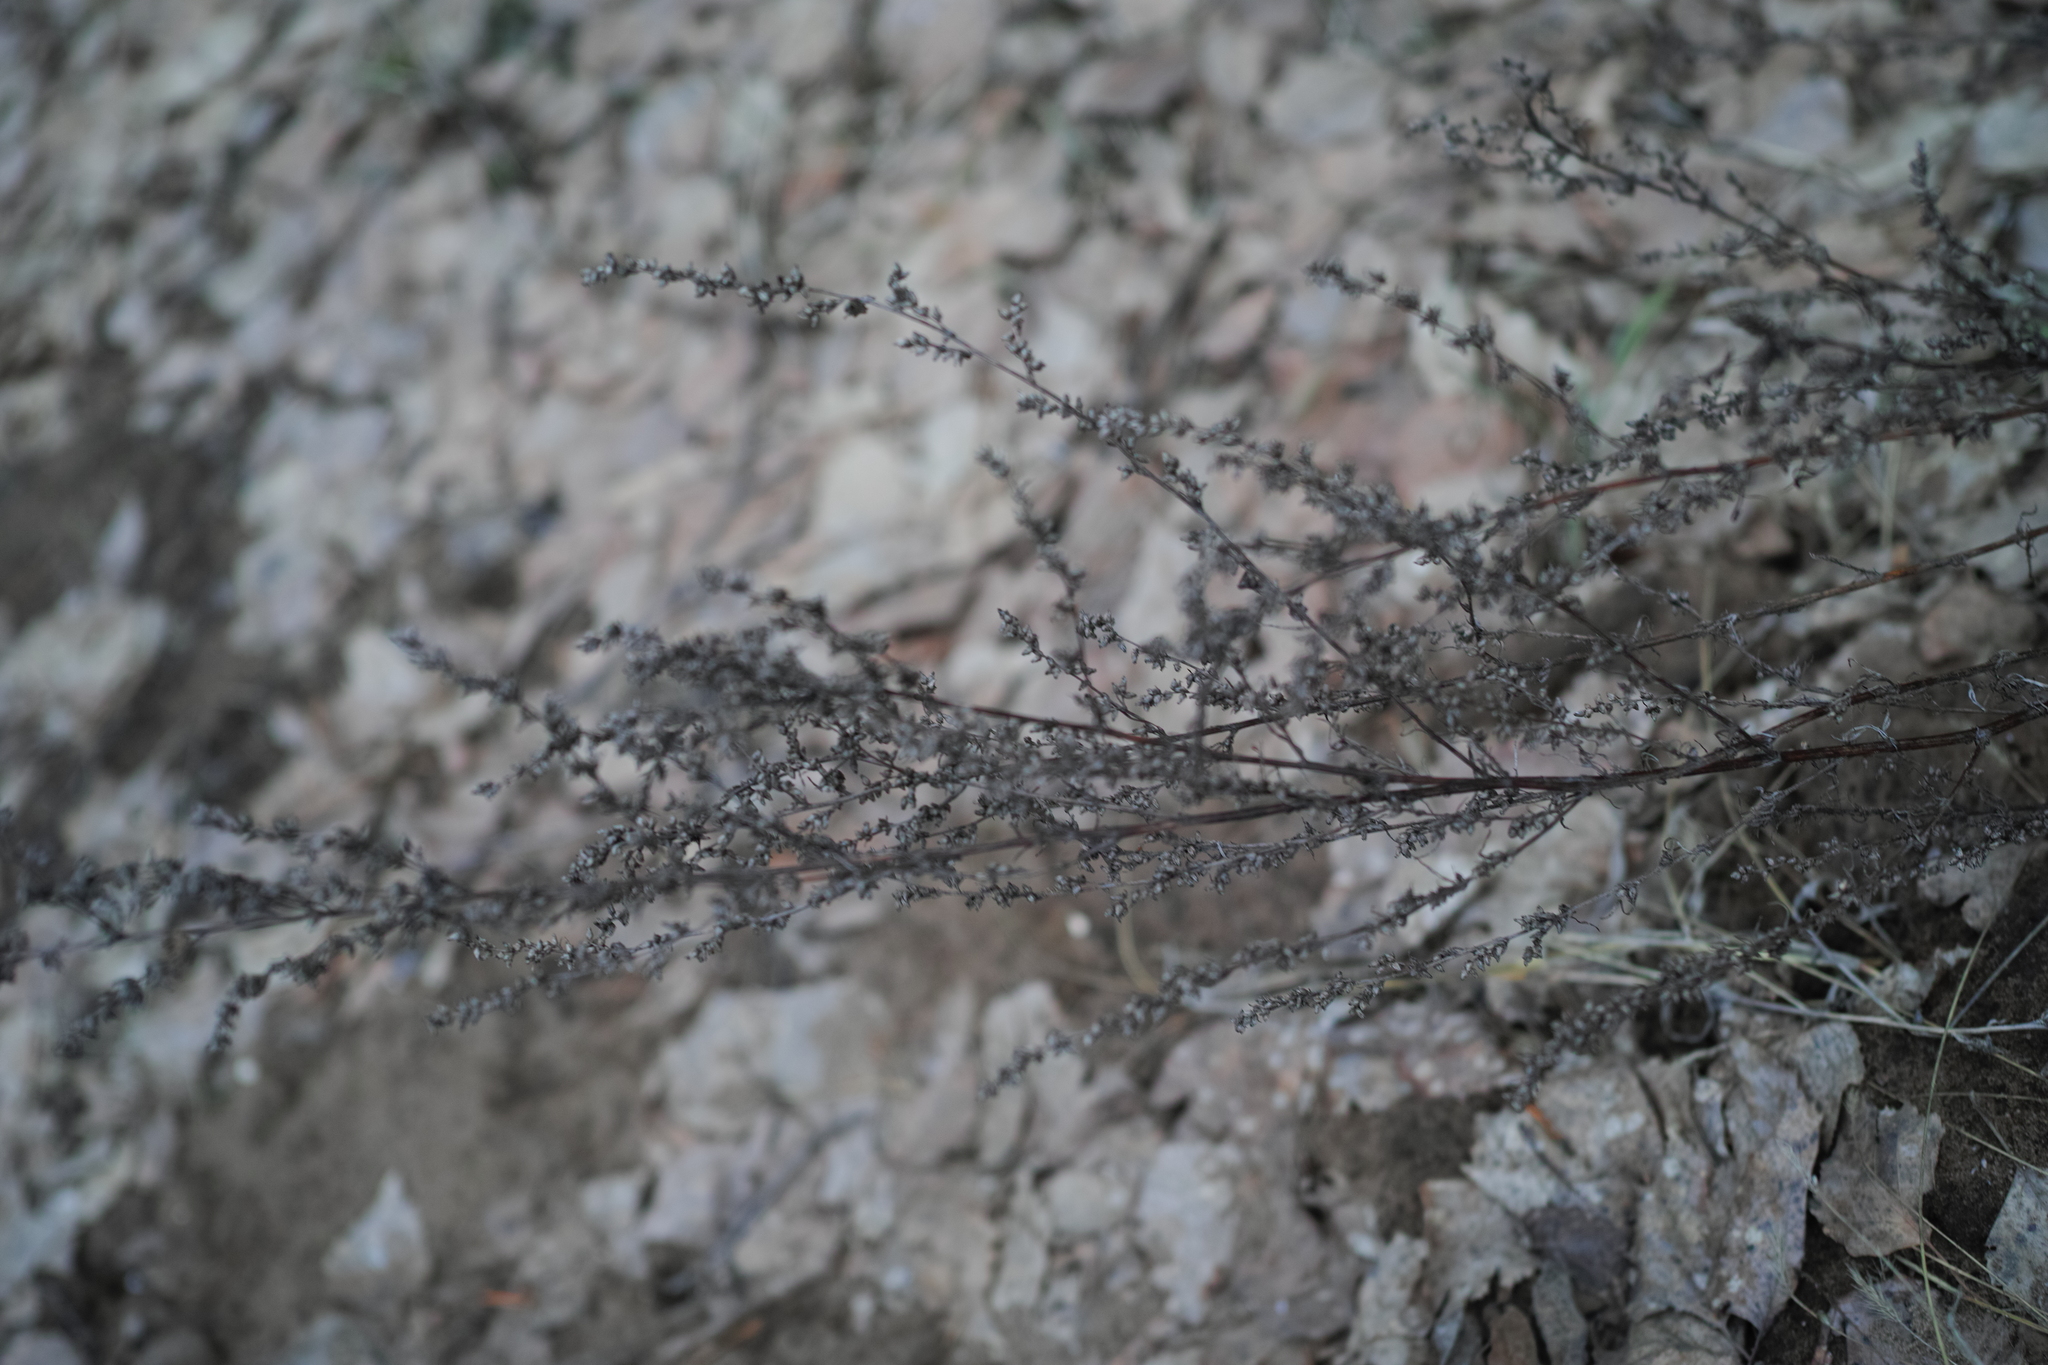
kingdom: Plantae
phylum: Tracheophyta
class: Magnoliopsida
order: Asterales
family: Asteraceae
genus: Artemisia
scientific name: Artemisia vulgaris
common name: Mugwort
